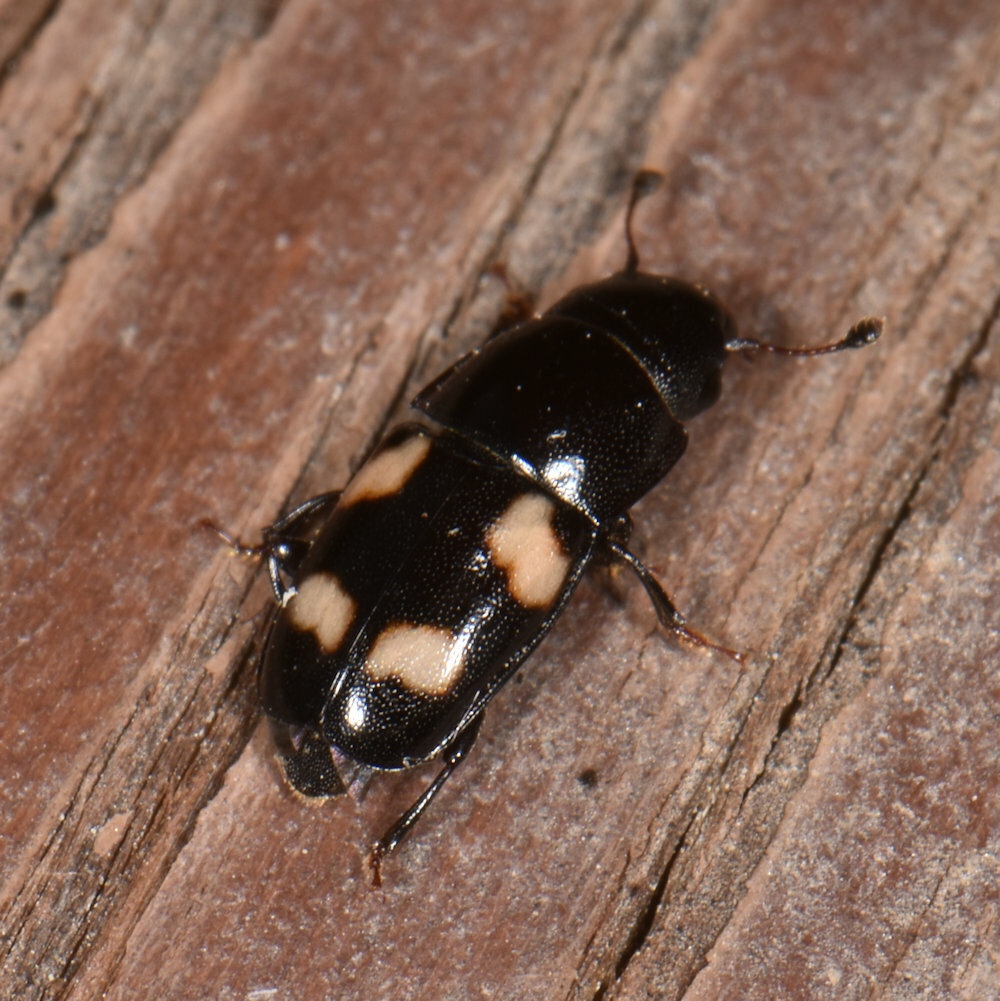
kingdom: Animalia
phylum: Arthropoda
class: Insecta
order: Coleoptera
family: Nitidulidae
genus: Glischrochilus
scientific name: Glischrochilus quadrisignatus
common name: Picnic beetle
